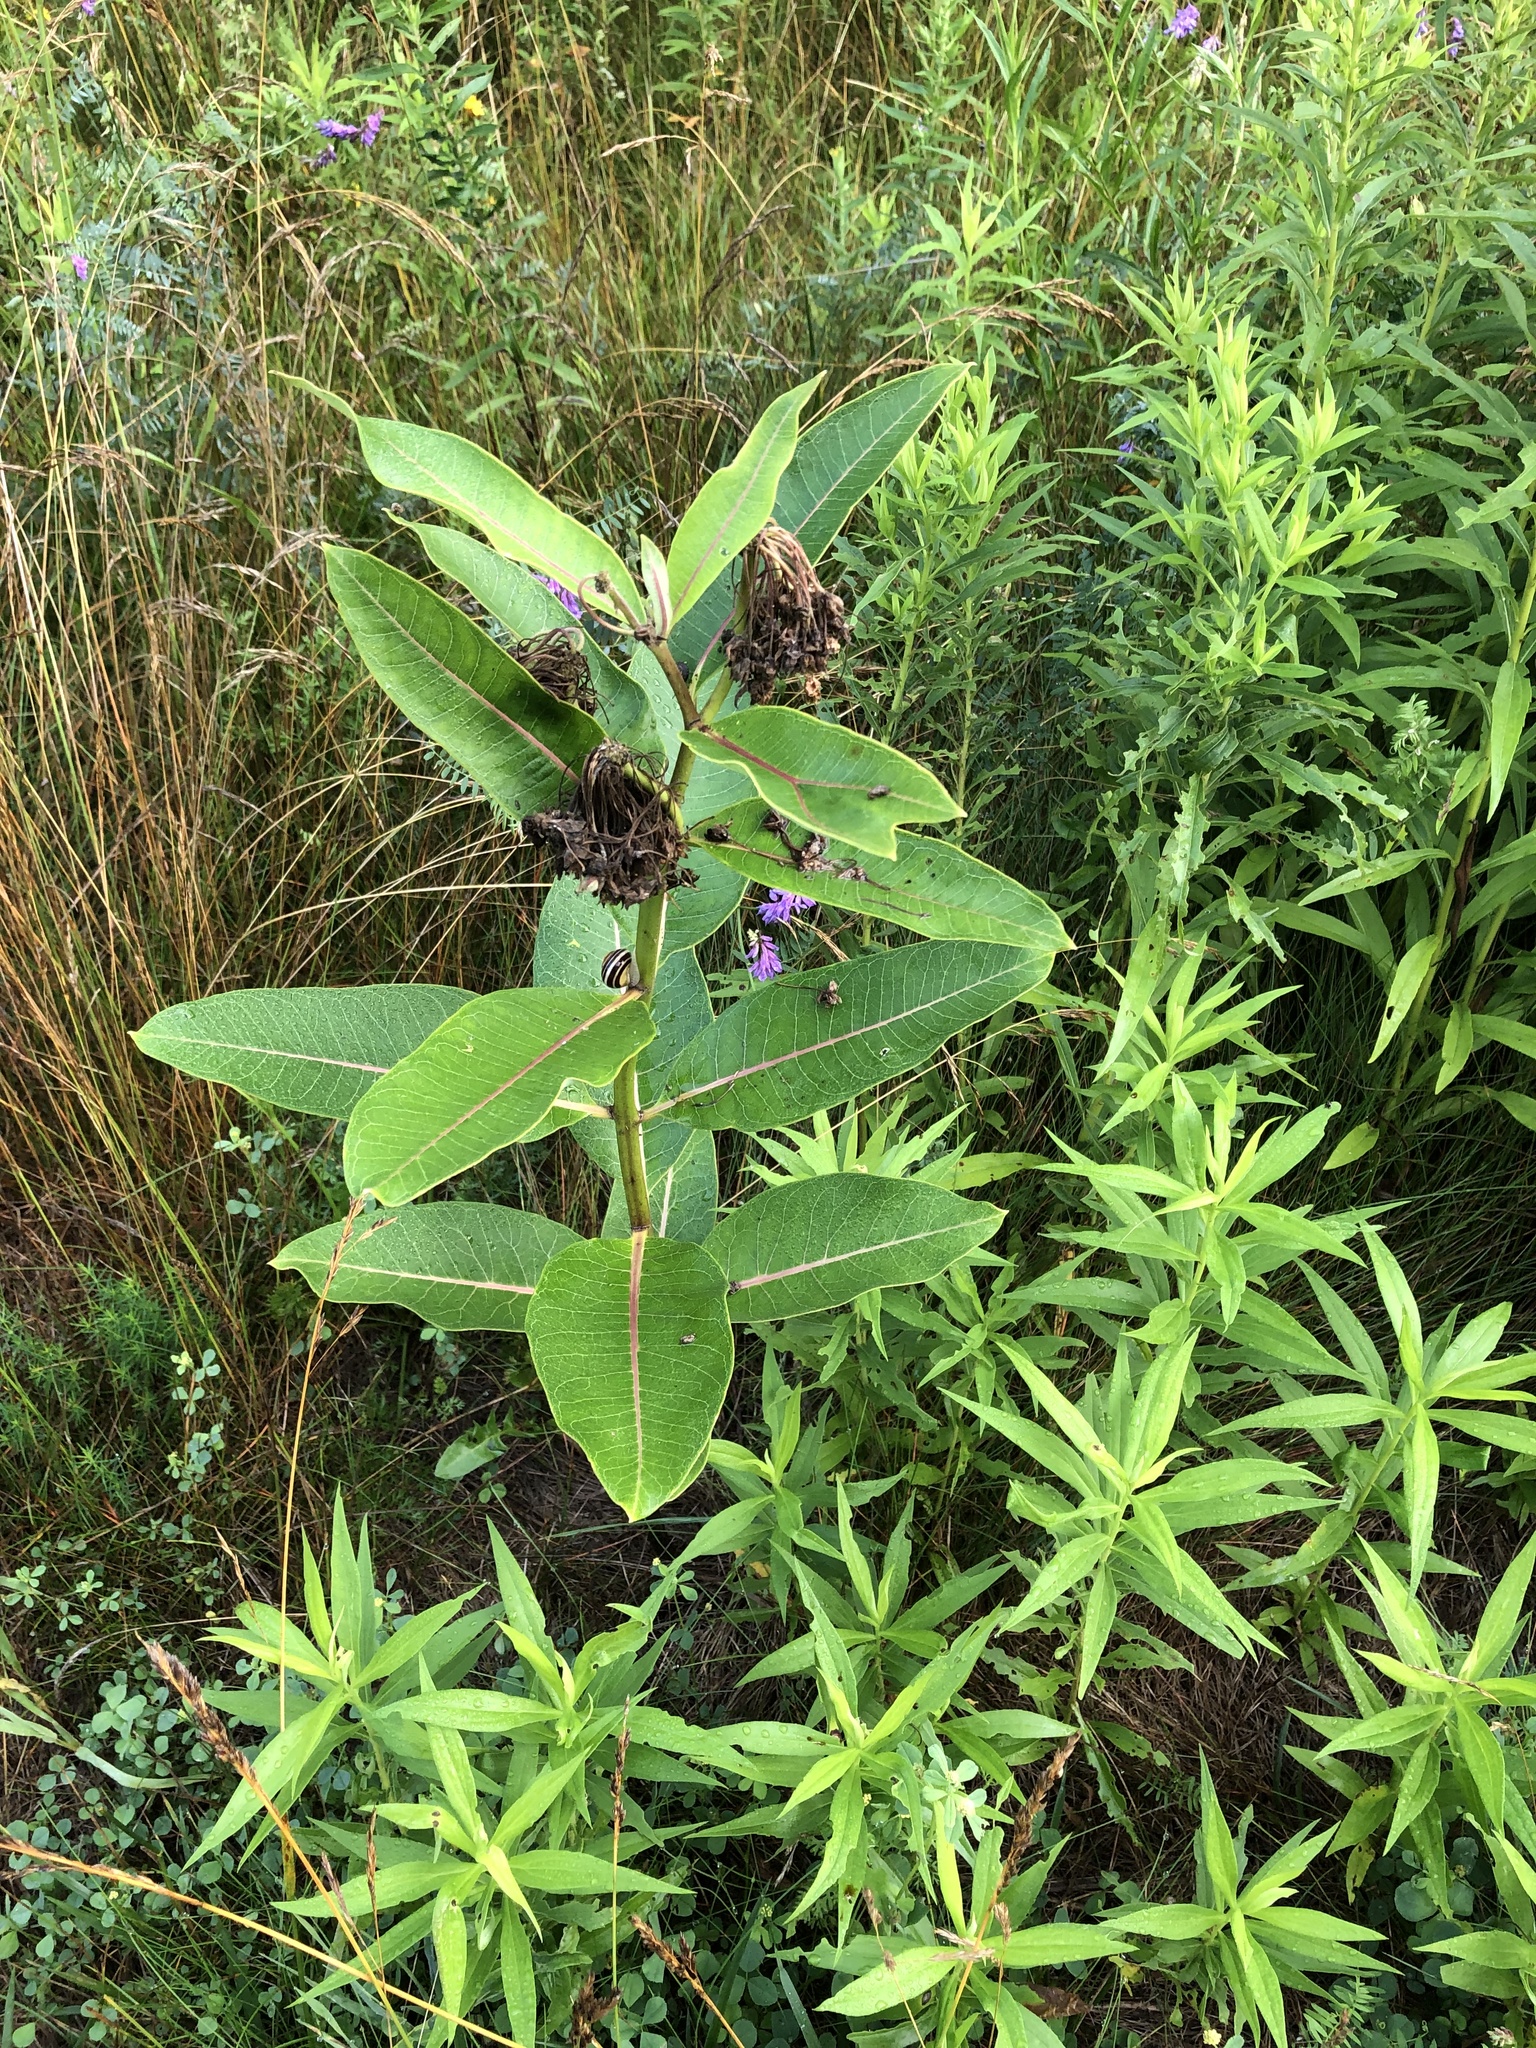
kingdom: Plantae
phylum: Tracheophyta
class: Magnoliopsida
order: Gentianales
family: Apocynaceae
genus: Asclepias
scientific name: Asclepias syriaca
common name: Common milkweed
